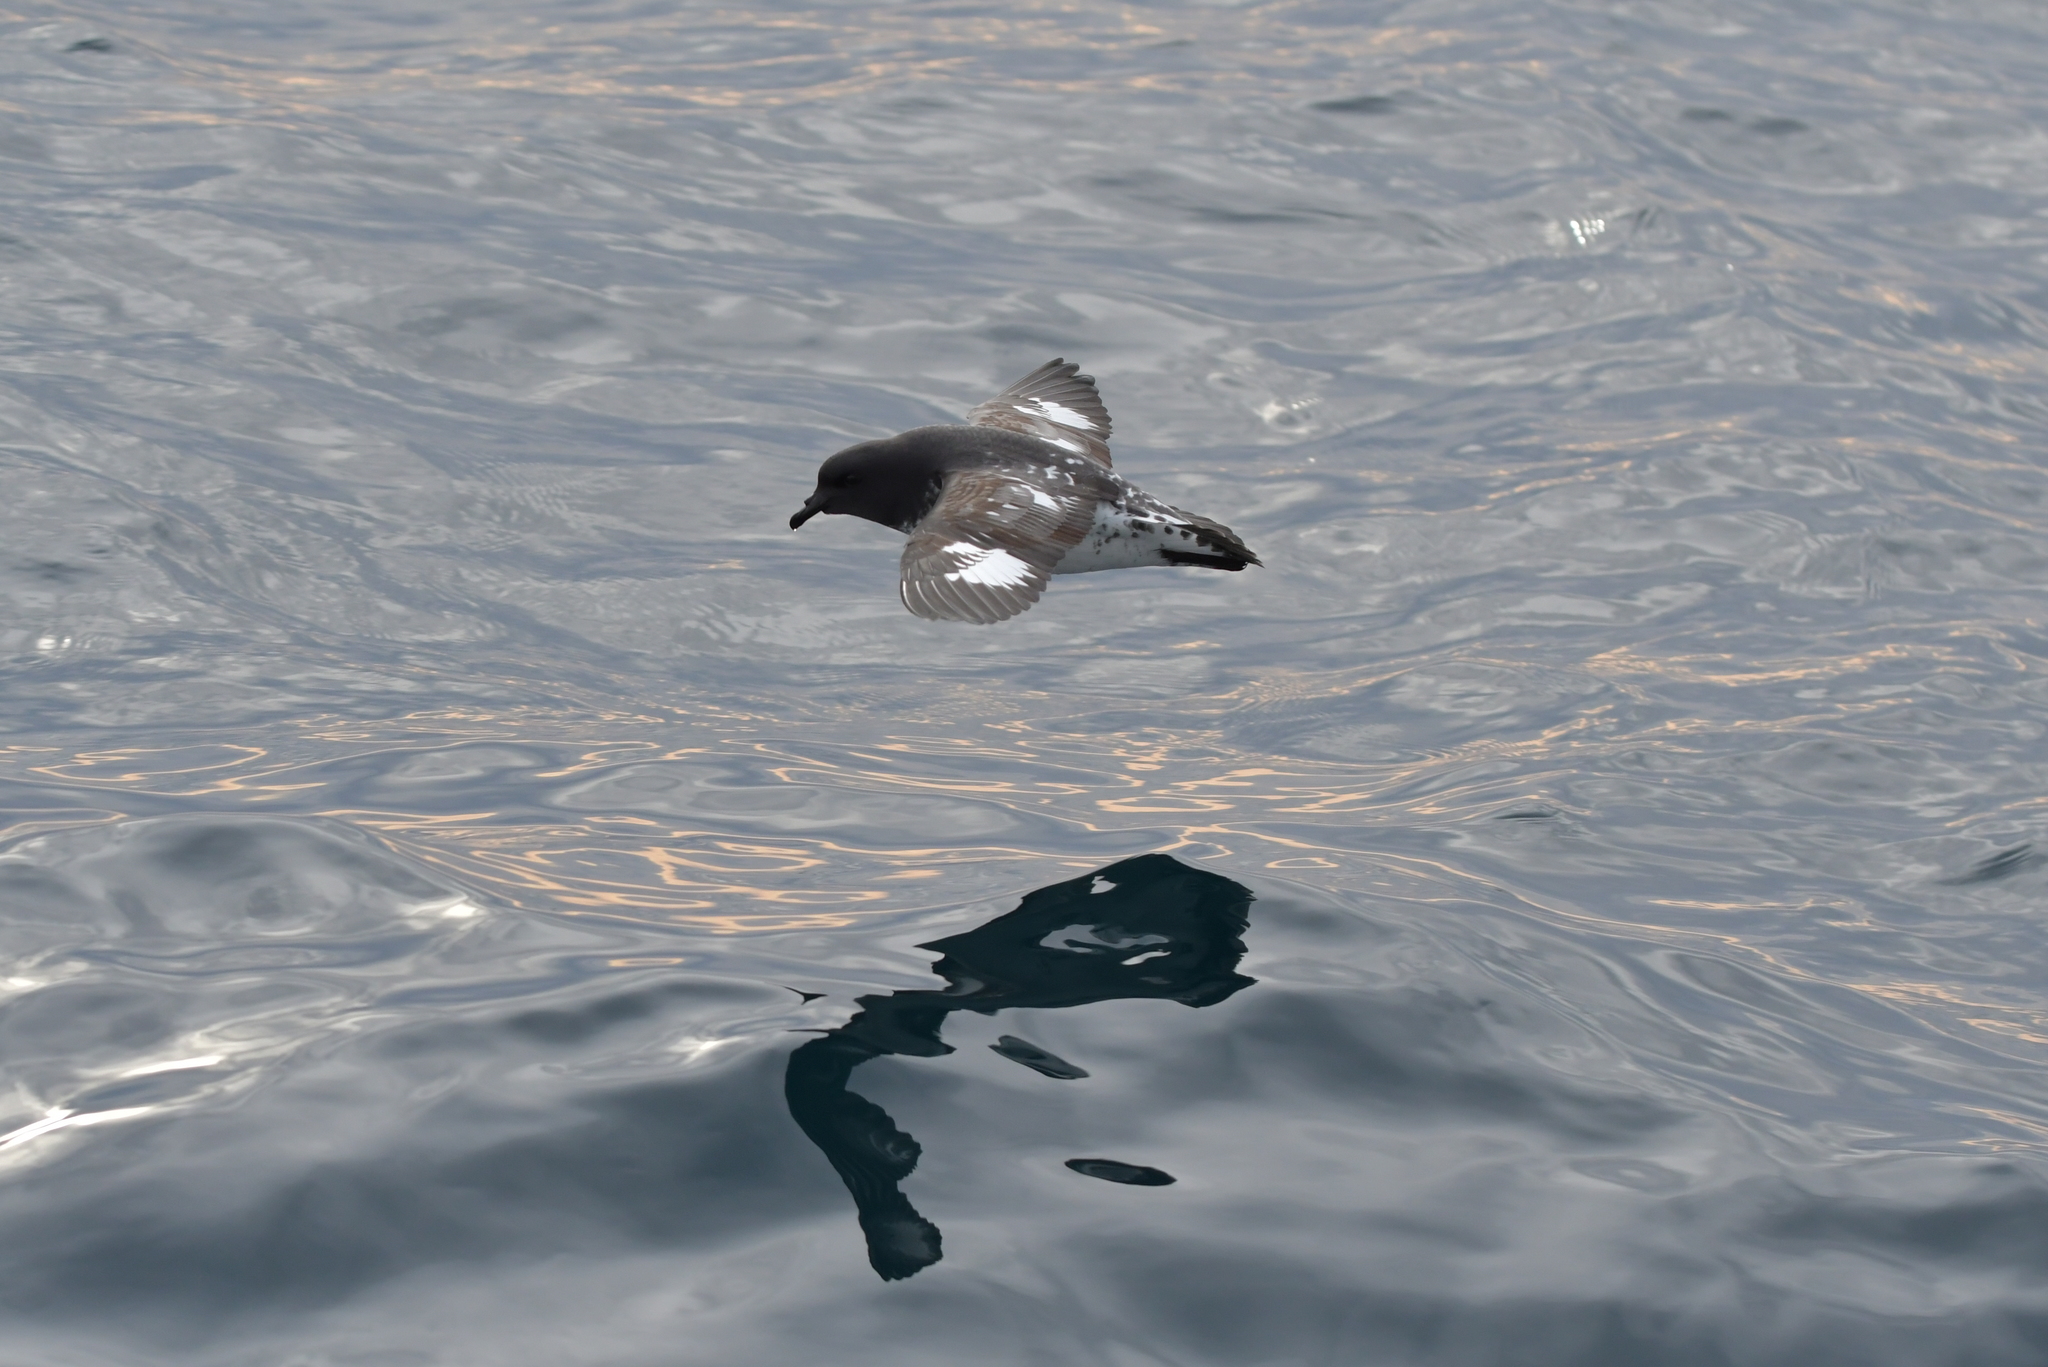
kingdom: Animalia
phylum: Chordata
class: Aves
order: Procellariiformes
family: Procellariidae
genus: Daption
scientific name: Daption capense
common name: Cape petrel
